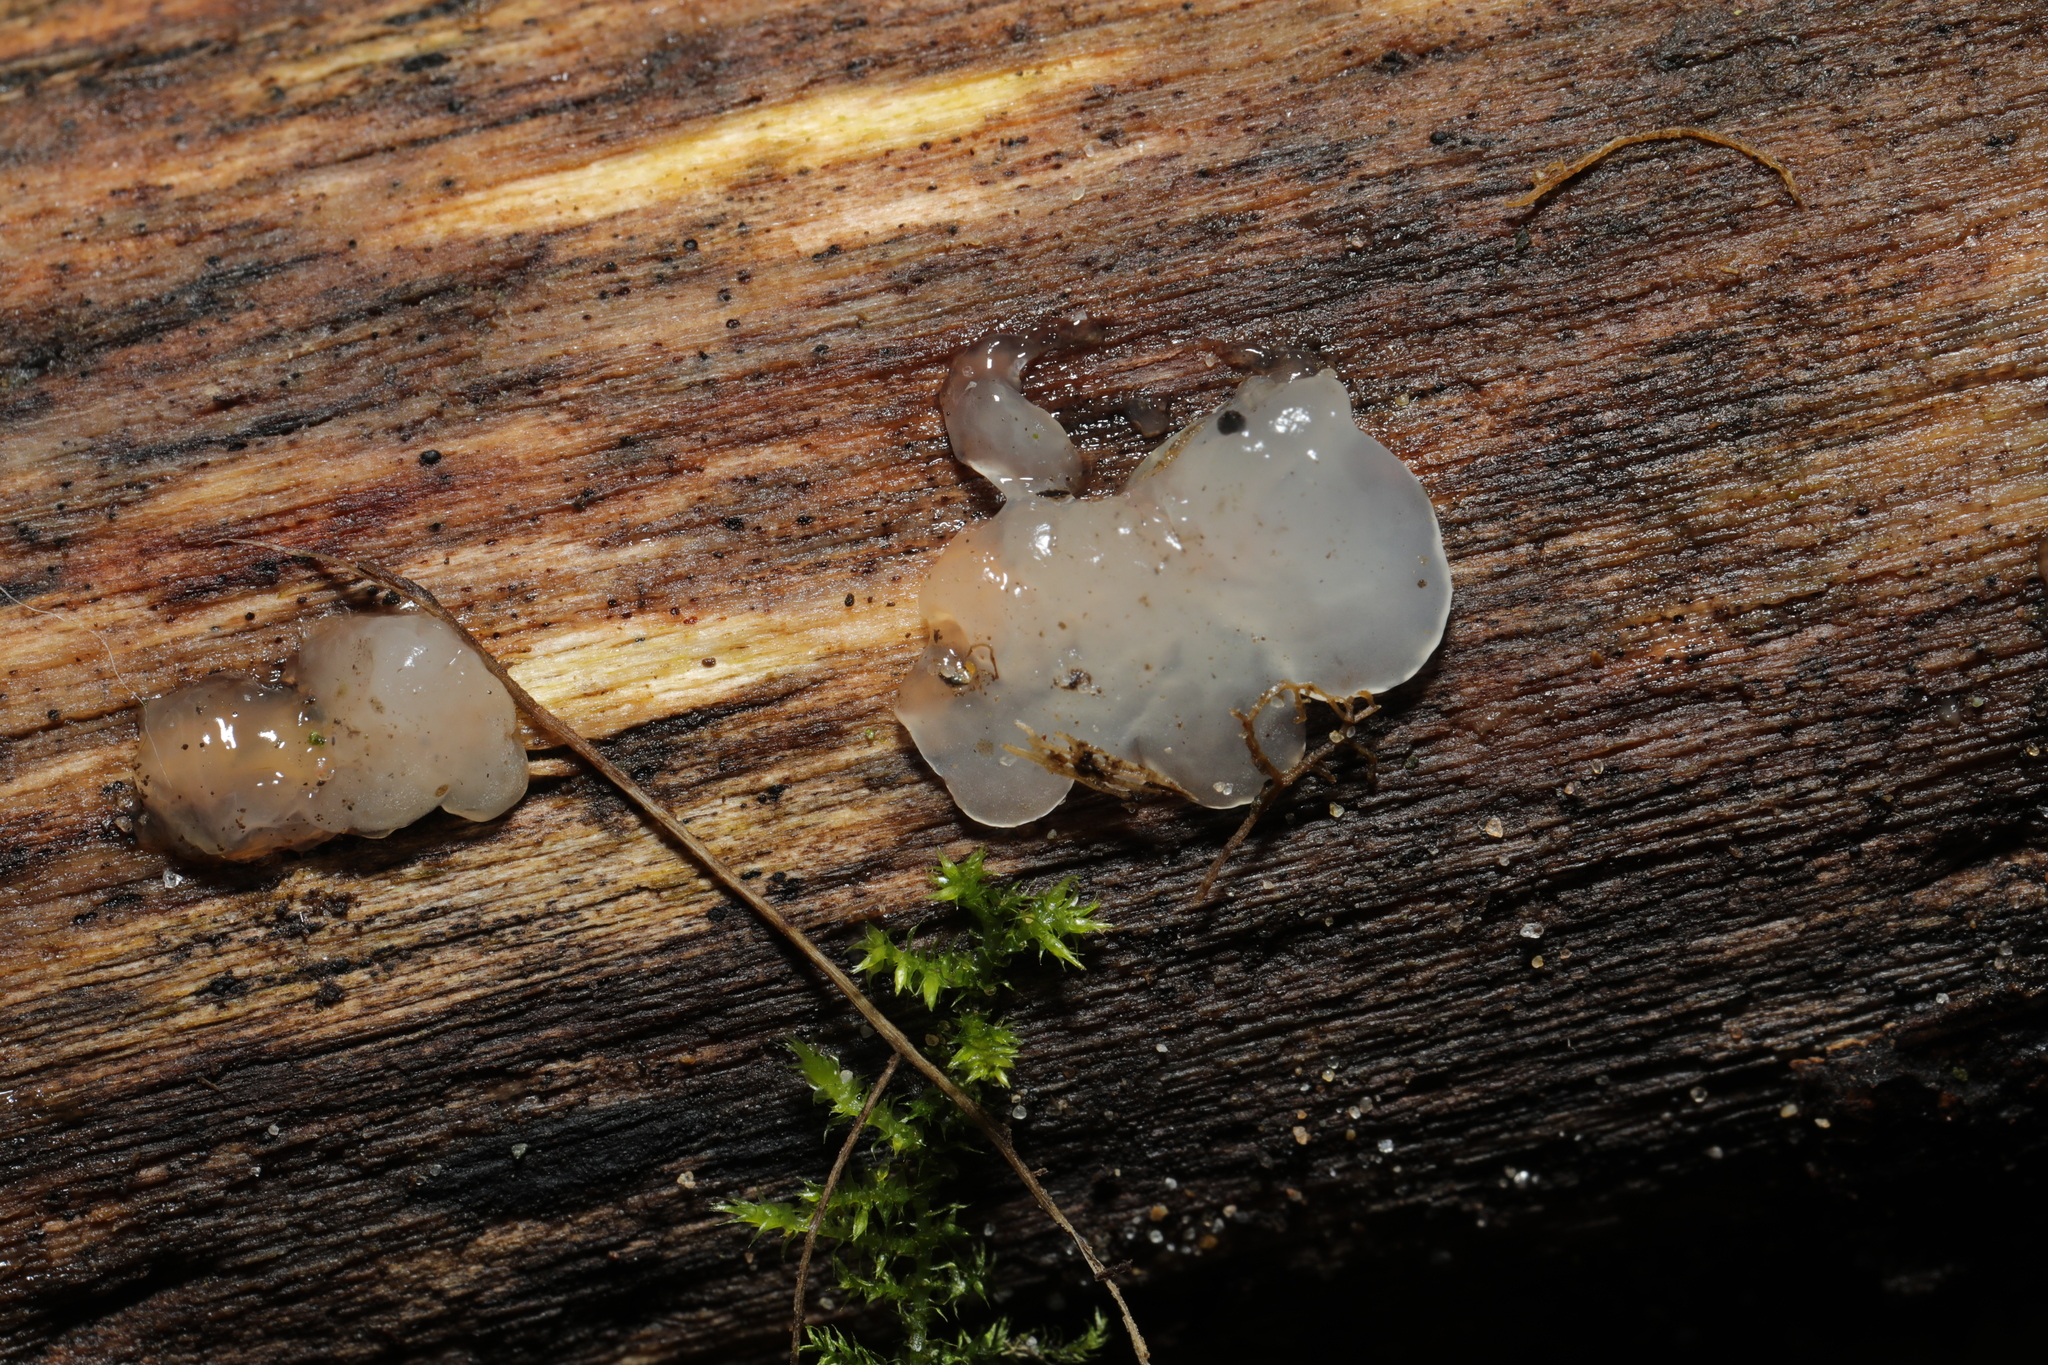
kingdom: Fungi
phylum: Basidiomycota
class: Agaricomycetes
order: Auriculariales
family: Hyaloriaceae
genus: Myxarium
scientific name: Myxarium nucleatum
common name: Crystal brain fungus
